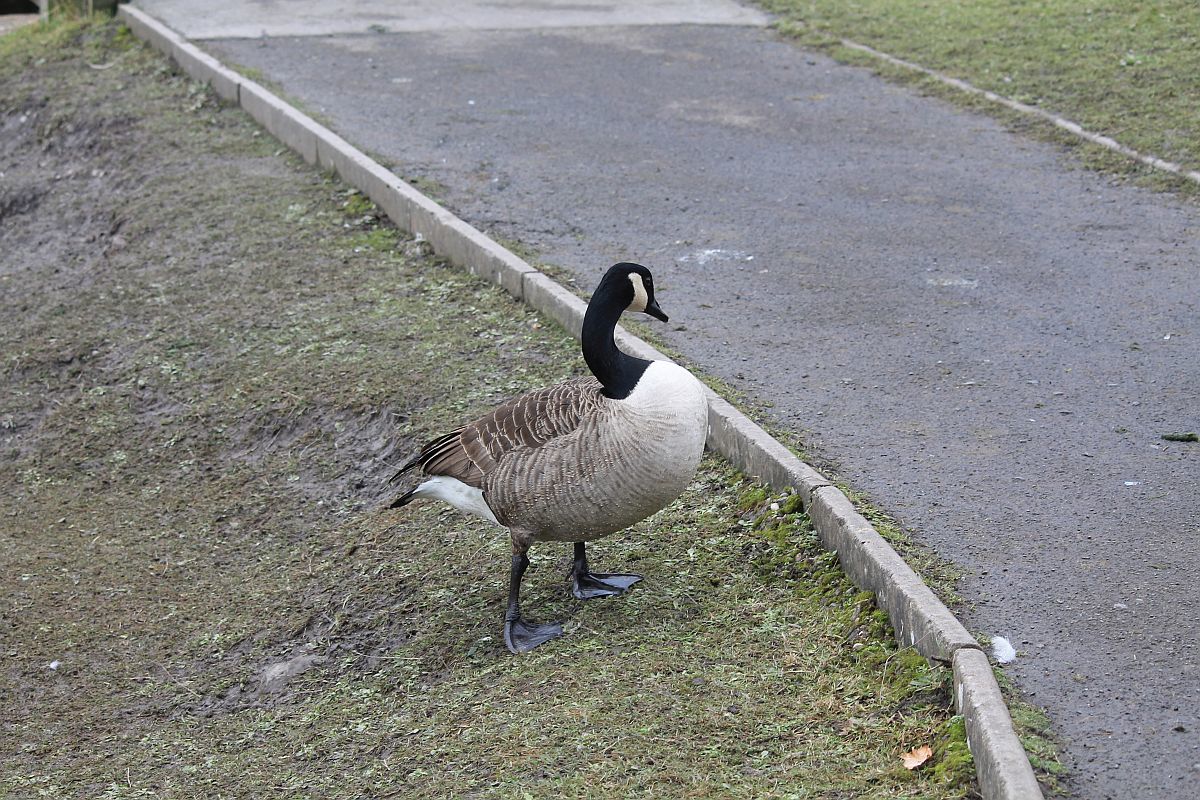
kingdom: Animalia
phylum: Chordata
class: Aves
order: Anseriformes
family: Anatidae
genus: Branta
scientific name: Branta canadensis
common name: Canada goose
